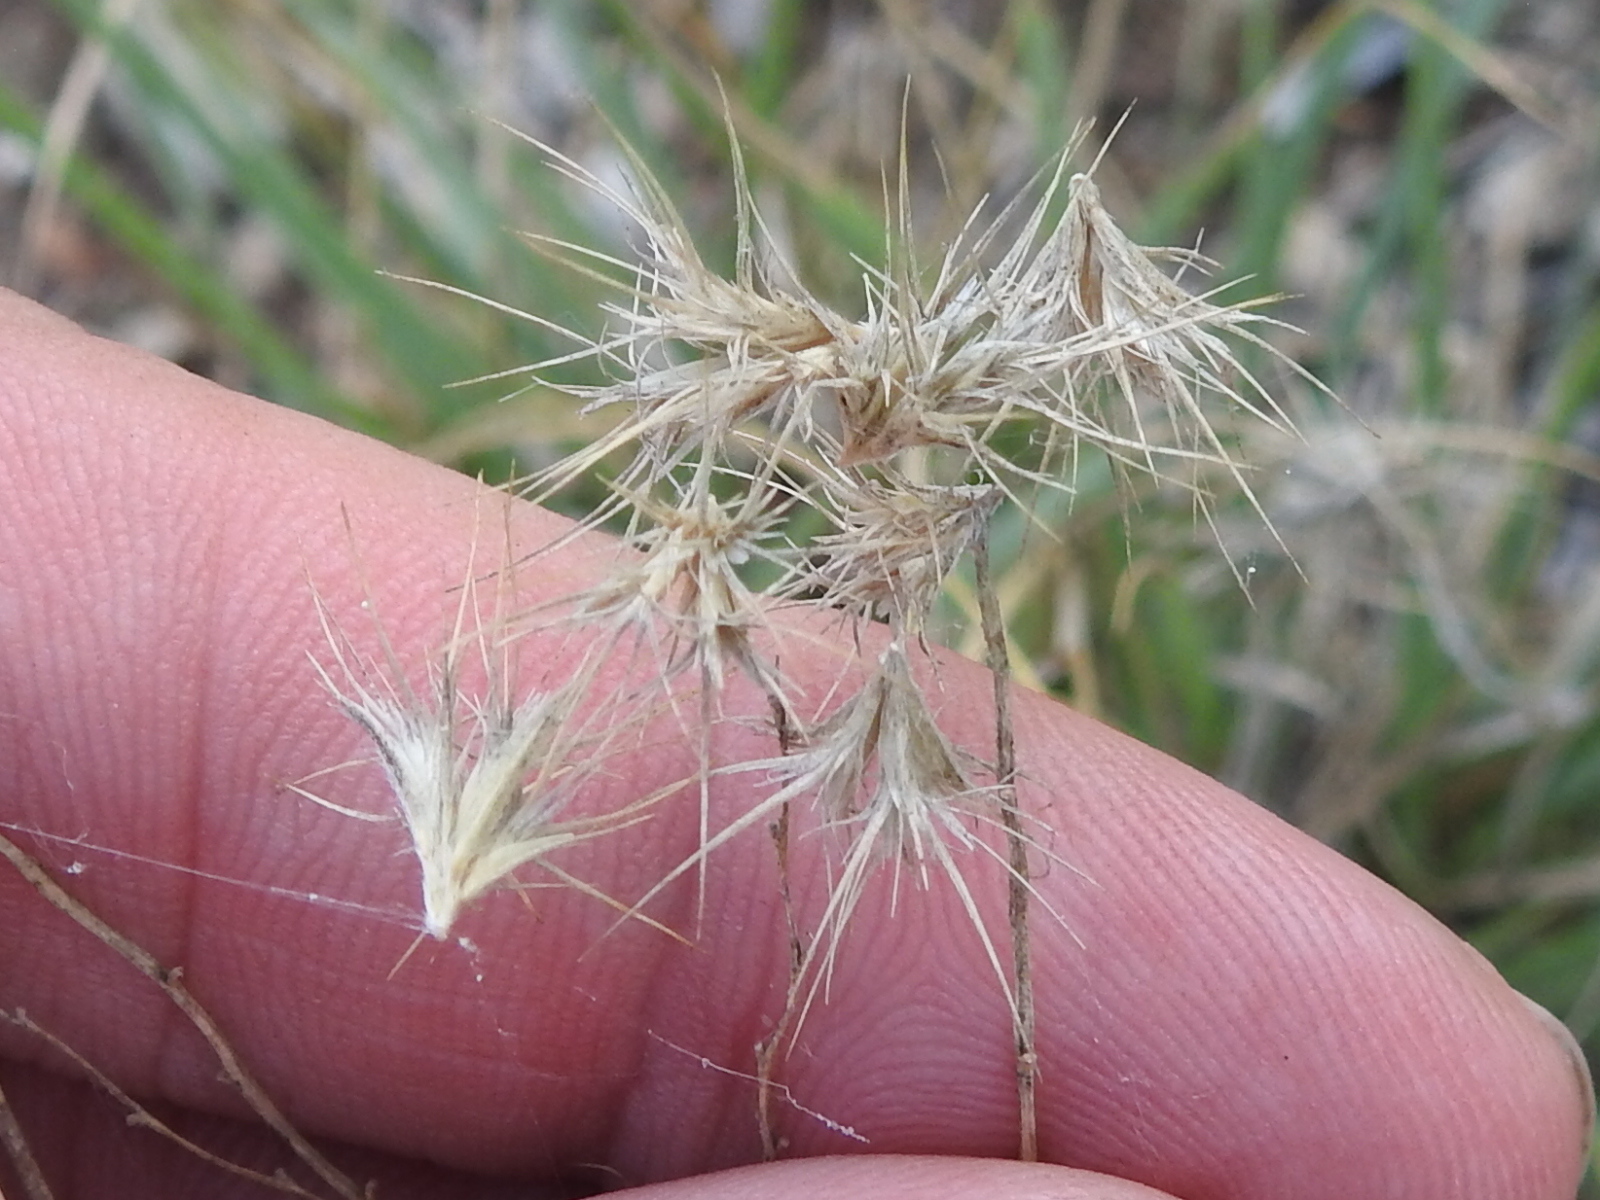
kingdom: Plantae
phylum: Tracheophyta
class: Liliopsida
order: Poales
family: Poaceae
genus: Bouteloua
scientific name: Bouteloua rigidiseta
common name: Texas grama
